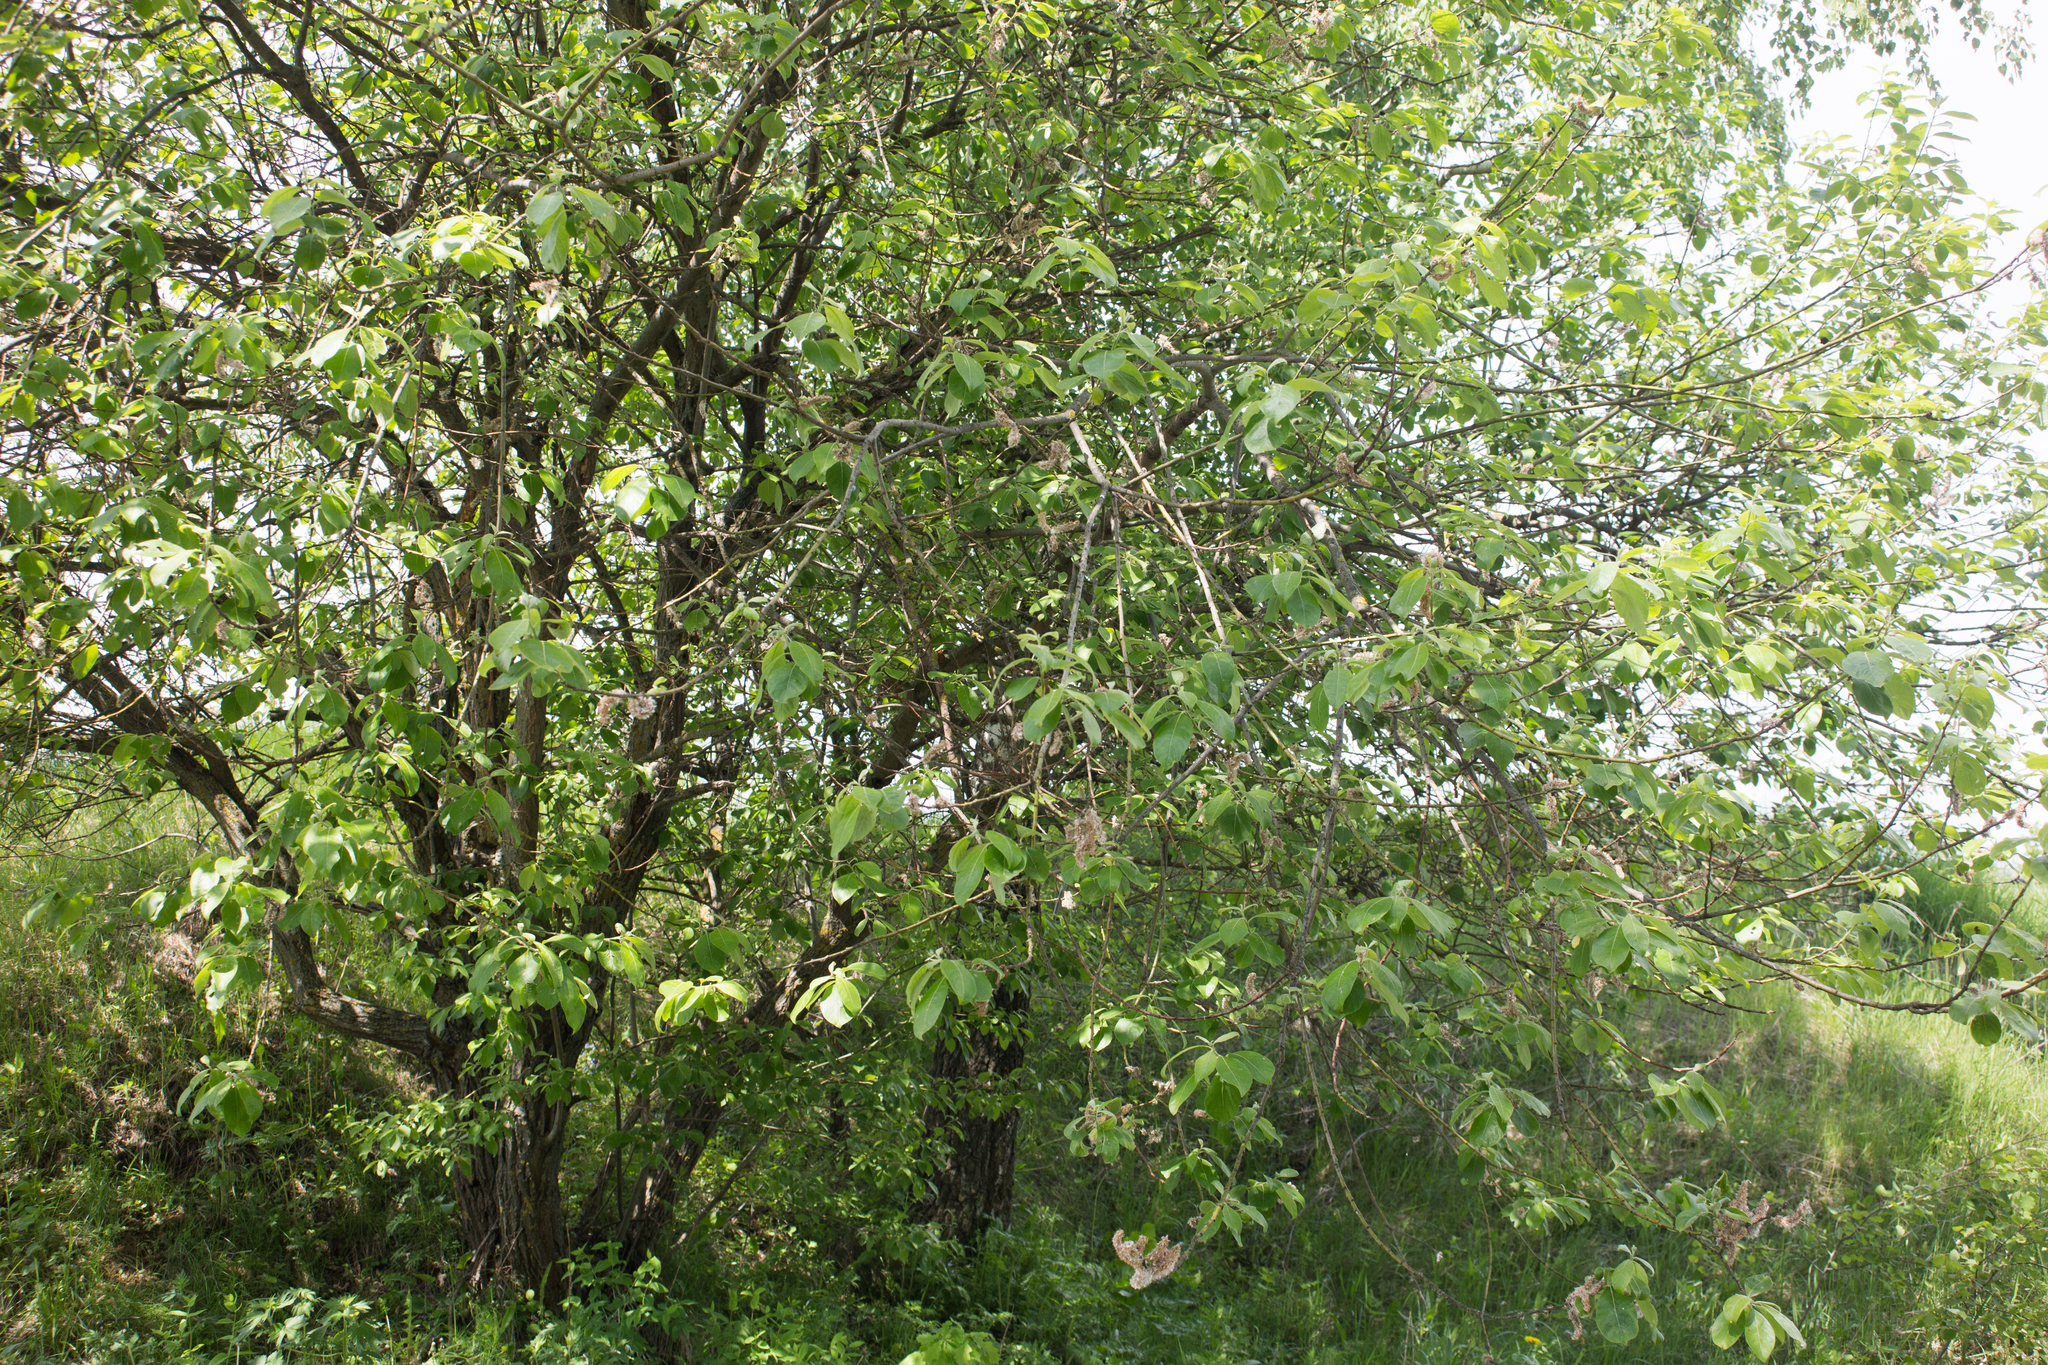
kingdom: Plantae
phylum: Tracheophyta
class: Magnoliopsida
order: Malpighiales
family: Salicaceae
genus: Salix
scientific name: Salix caprea
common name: Goat willow
